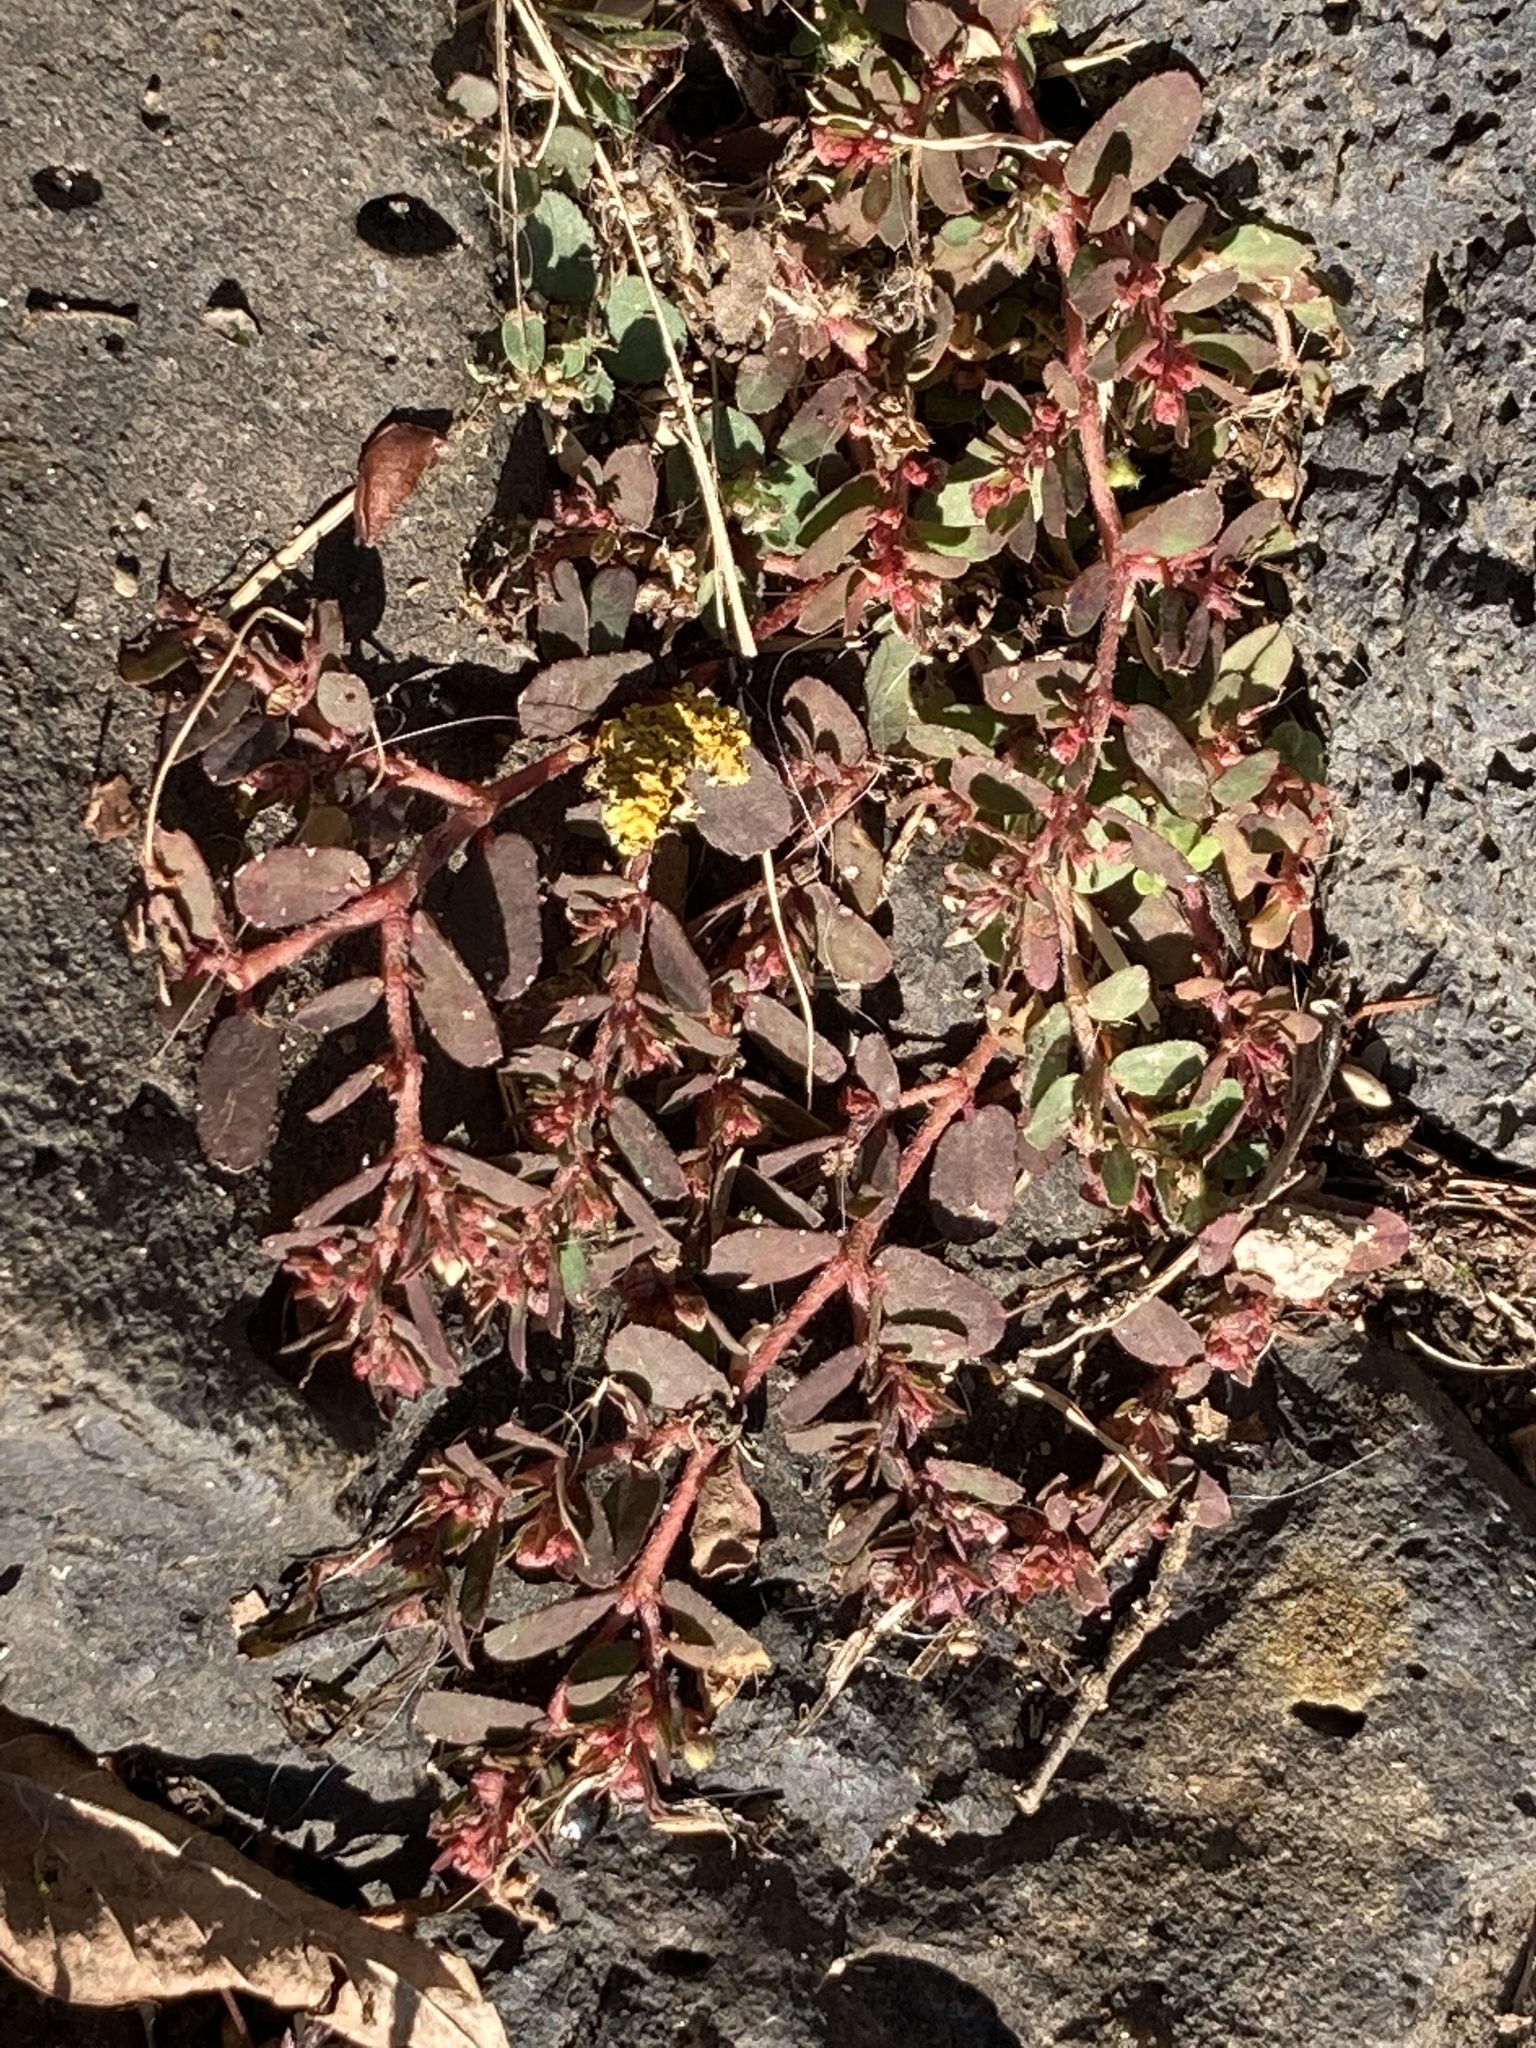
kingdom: Plantae
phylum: Tracheophyta
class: Magnoliopsida
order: Malpighiales
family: Euphorbiaceae
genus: Euphorbia
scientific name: Euphorbia maculata
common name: Spotted spurge
